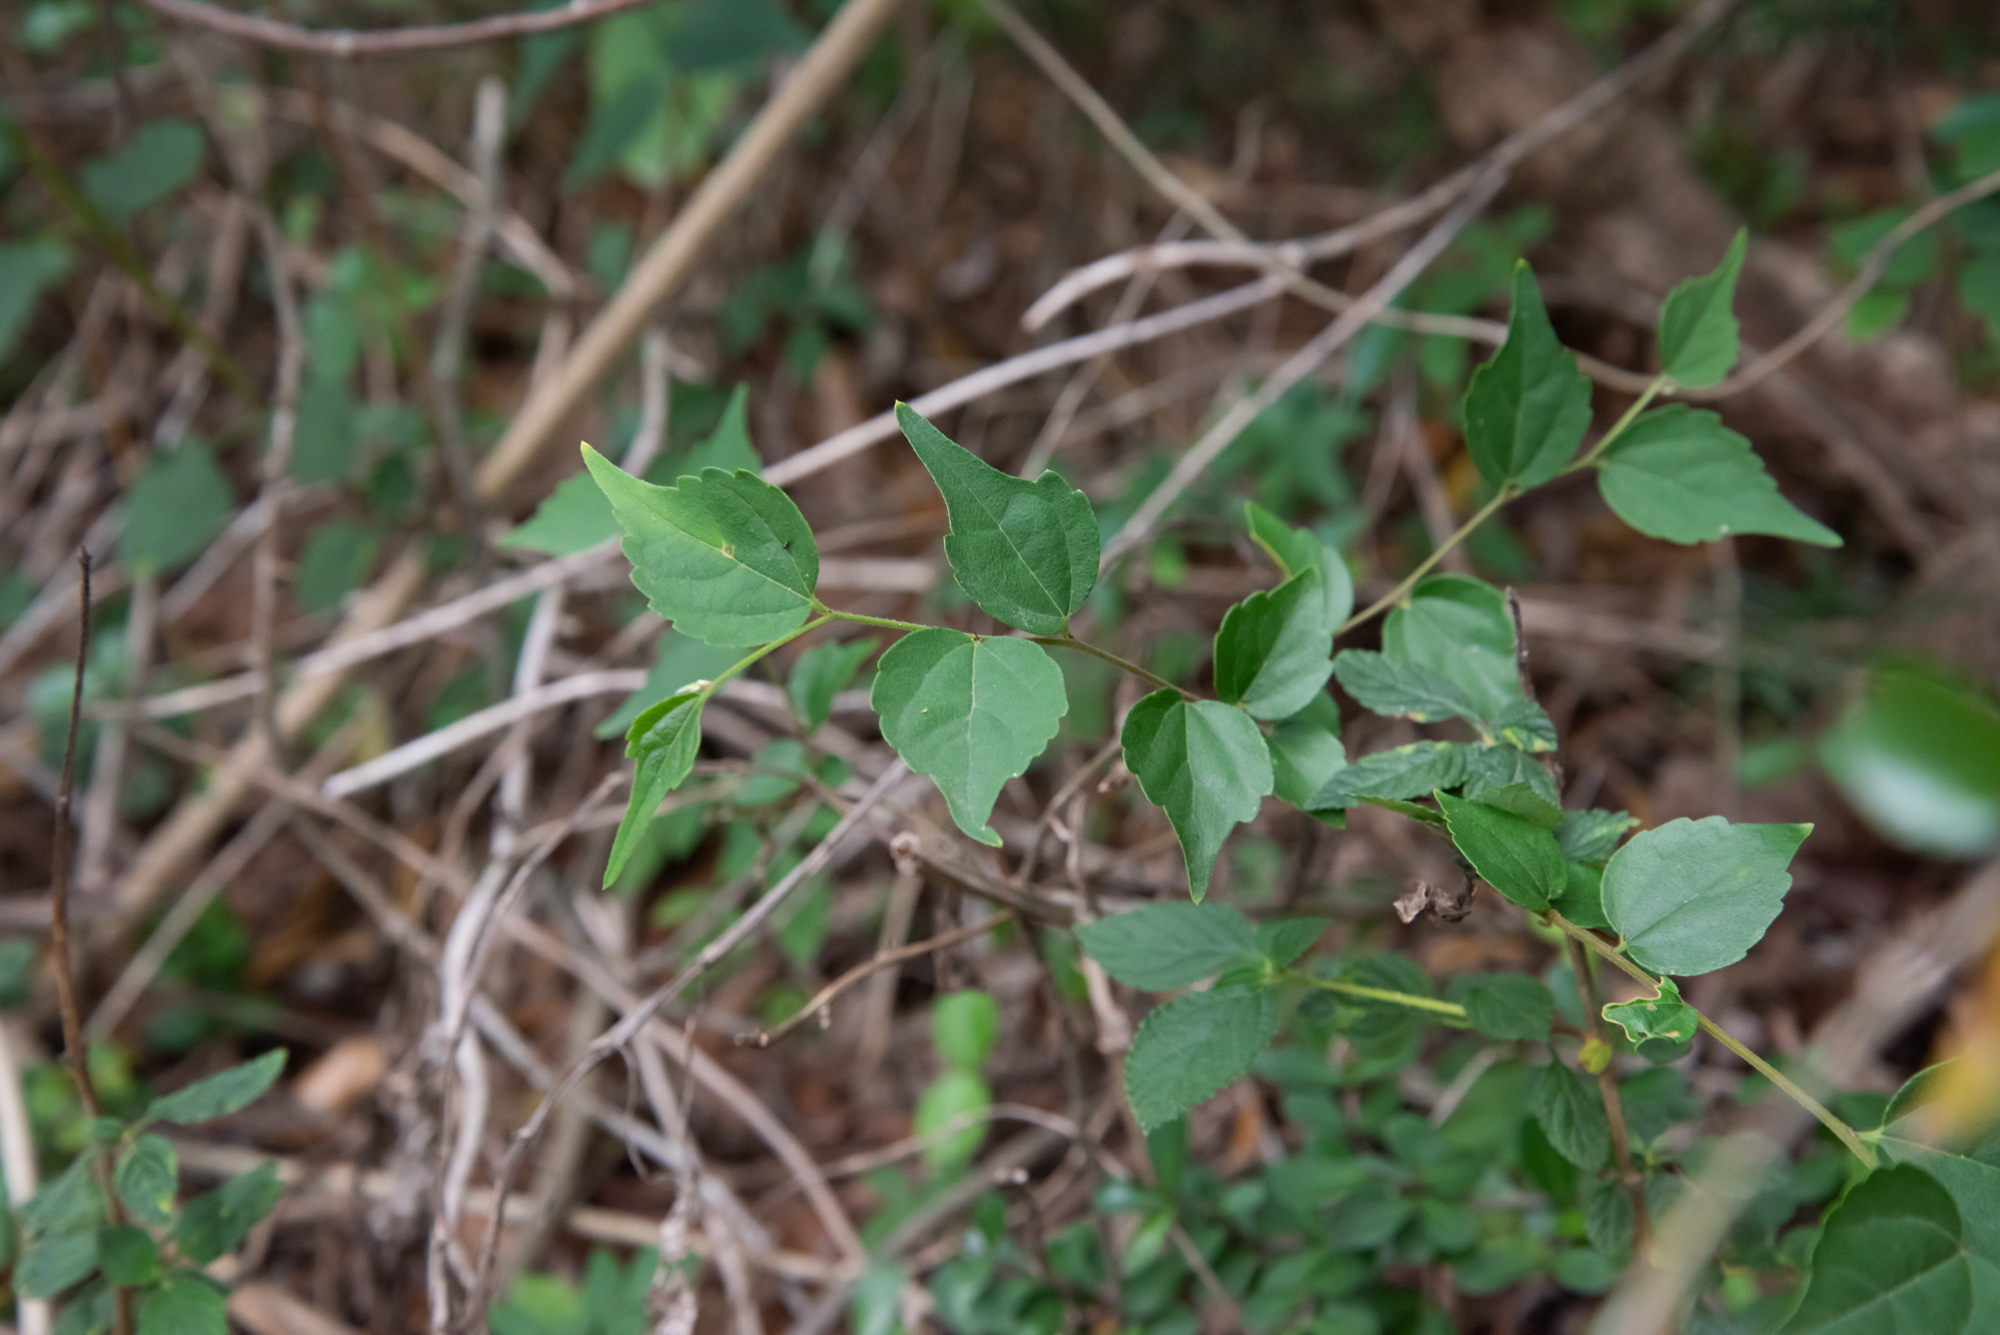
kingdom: Plantae
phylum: Tracheophyta
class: Magnoliopsida
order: Rosales
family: Cannabaceae
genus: Celtis
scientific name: Celtis biondii
